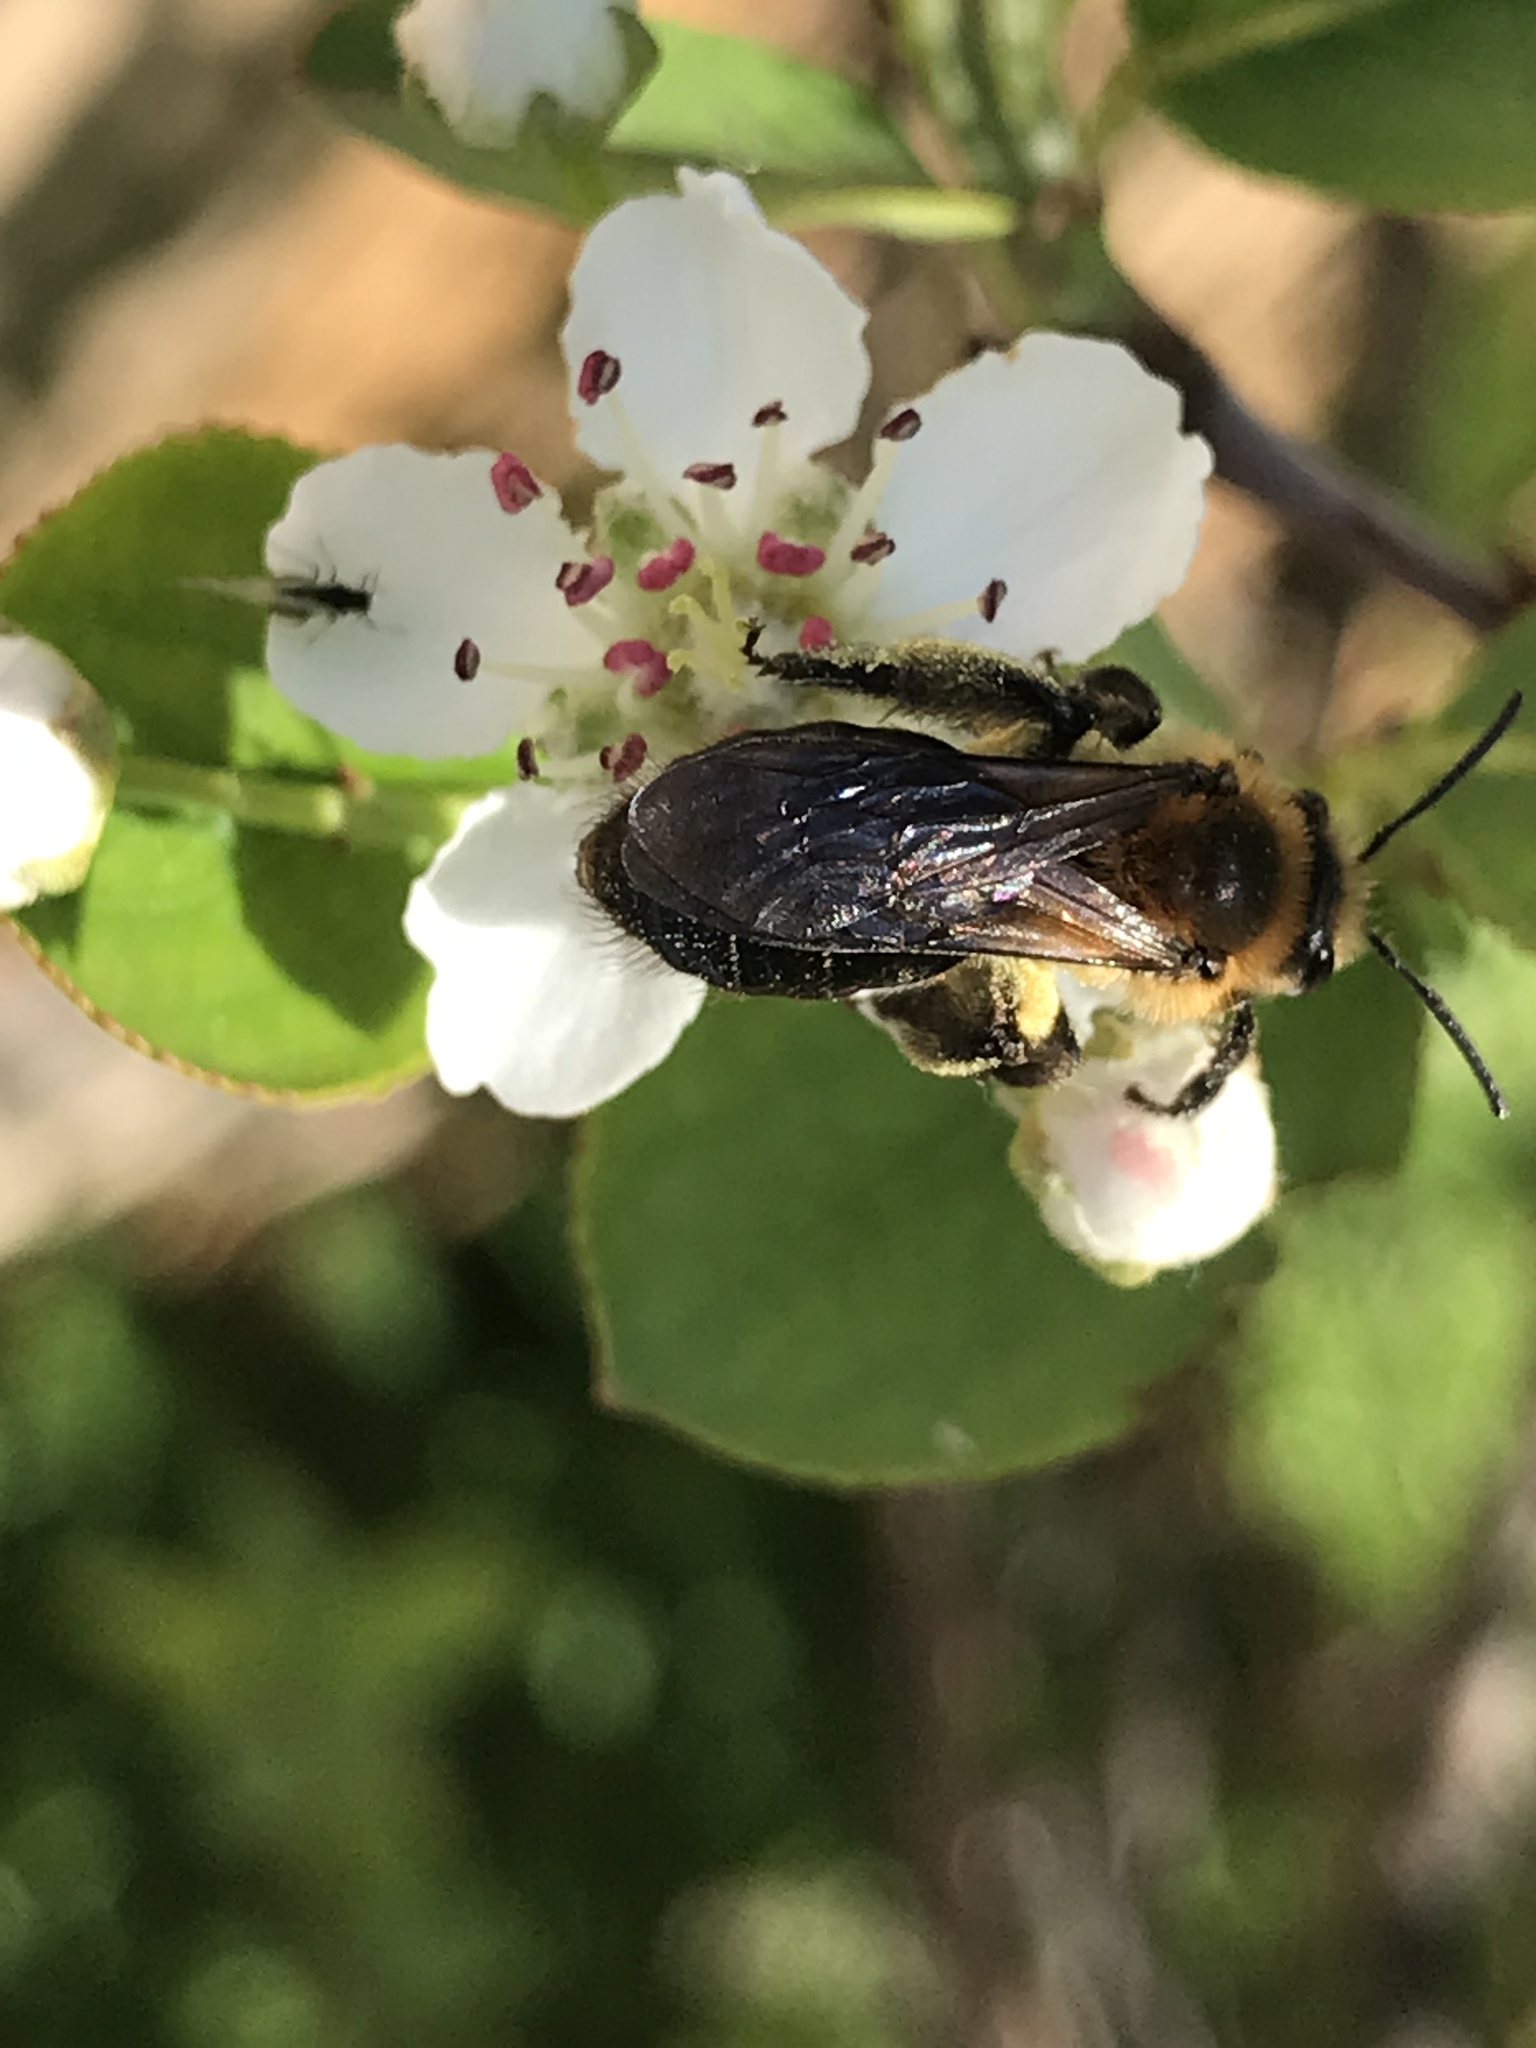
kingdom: Animalia
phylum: Arthropoda
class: Insecta
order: Hymenoptera
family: Andrenidae
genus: Andrena
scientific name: Andrena dunningi
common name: Dunning's miner
